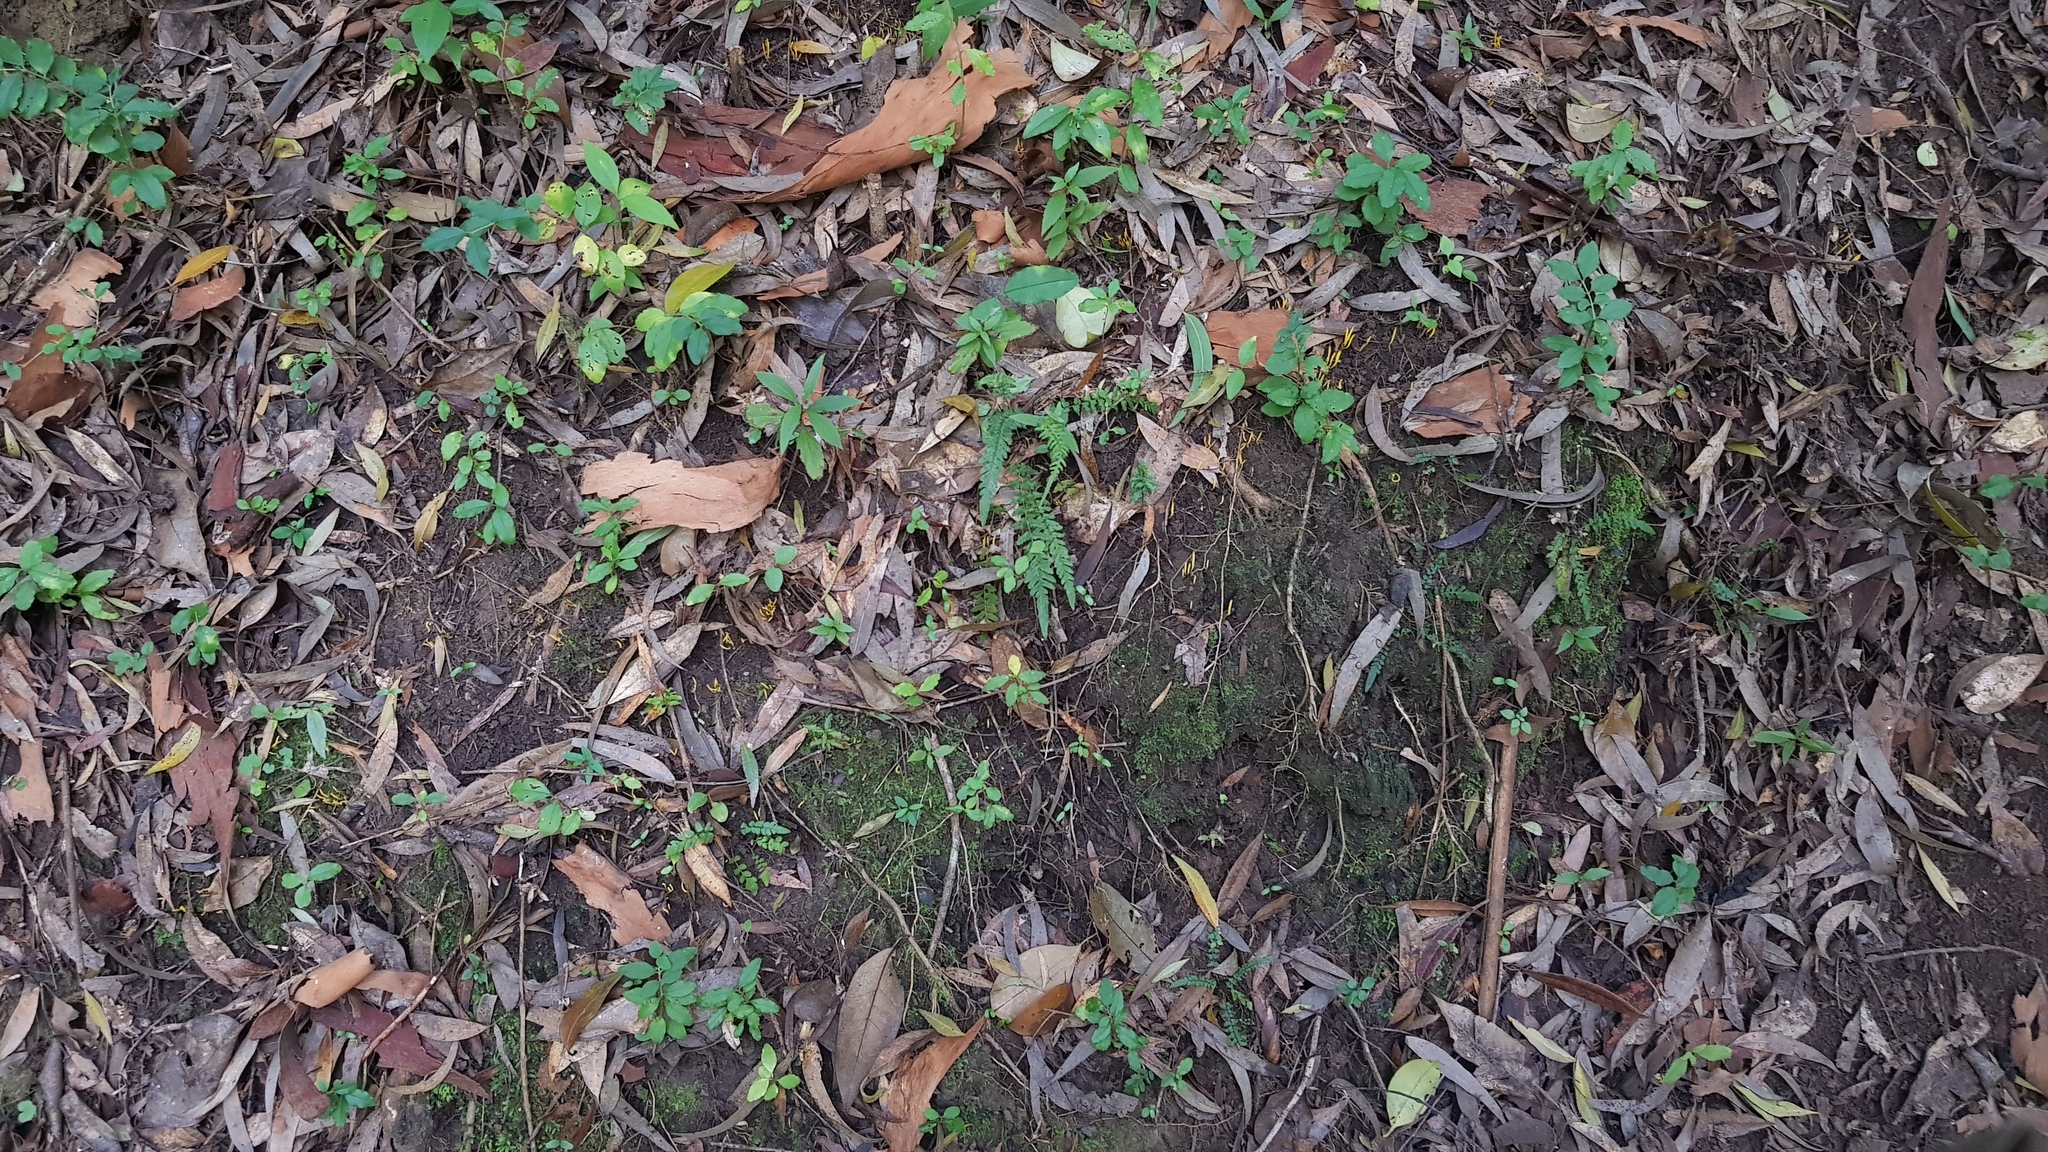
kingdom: Fungi
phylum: Basidiomycota
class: Agaricomycetes
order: Agaricales
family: Clavariaceae
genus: Clavulinopsis
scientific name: Clavulinopsis amoena
